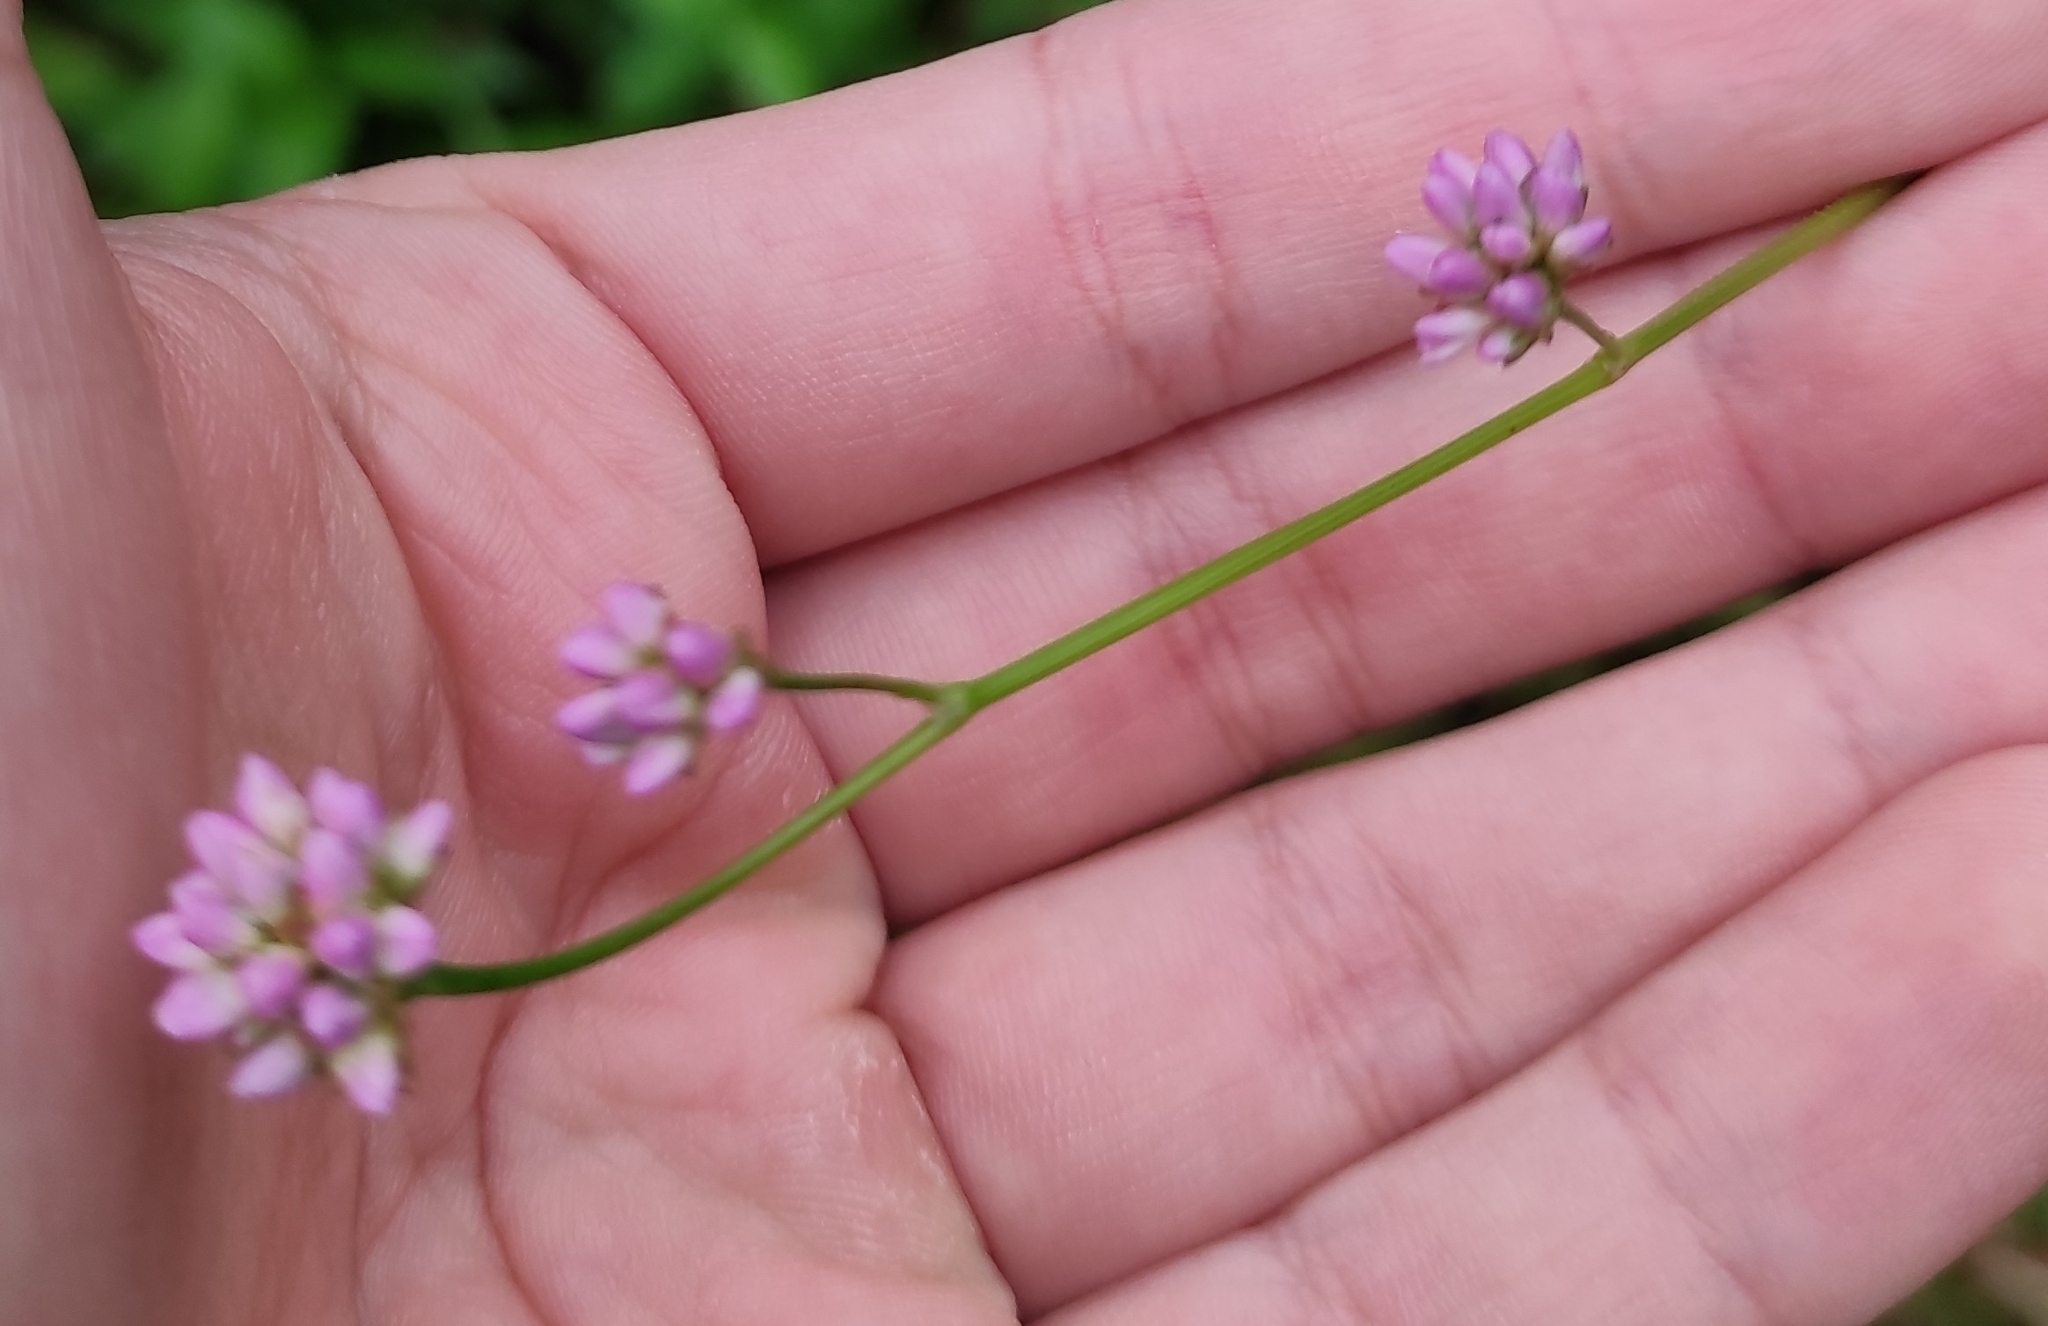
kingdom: Plantae
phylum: Tracheophyta
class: Magnoliopsida
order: Caryophyllales
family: Polygonaceae
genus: Persicaria
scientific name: Persicaria sagittata
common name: American tearthumb
